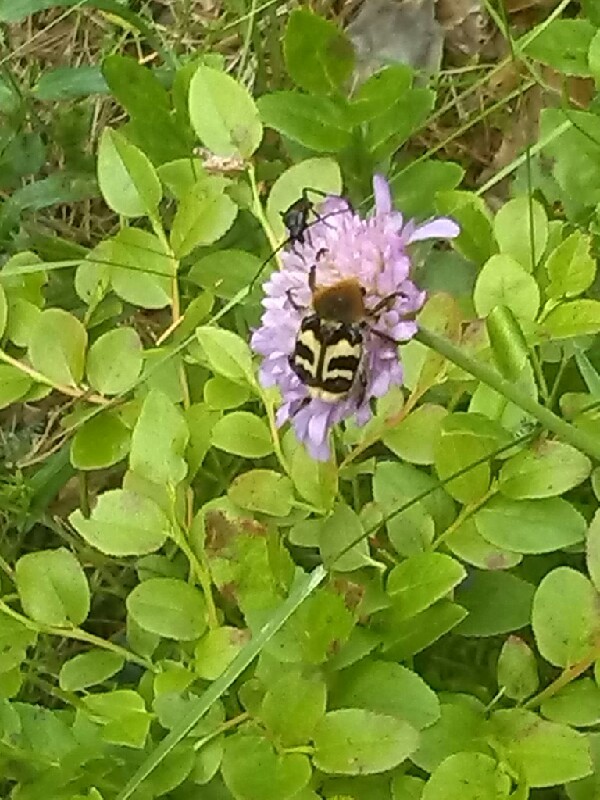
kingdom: Animalia
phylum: Arthropoda
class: Insecta
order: Coleoptera
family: Scarabaeidae
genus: Trichius
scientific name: Trichius fasciatus
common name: Bee beetle
